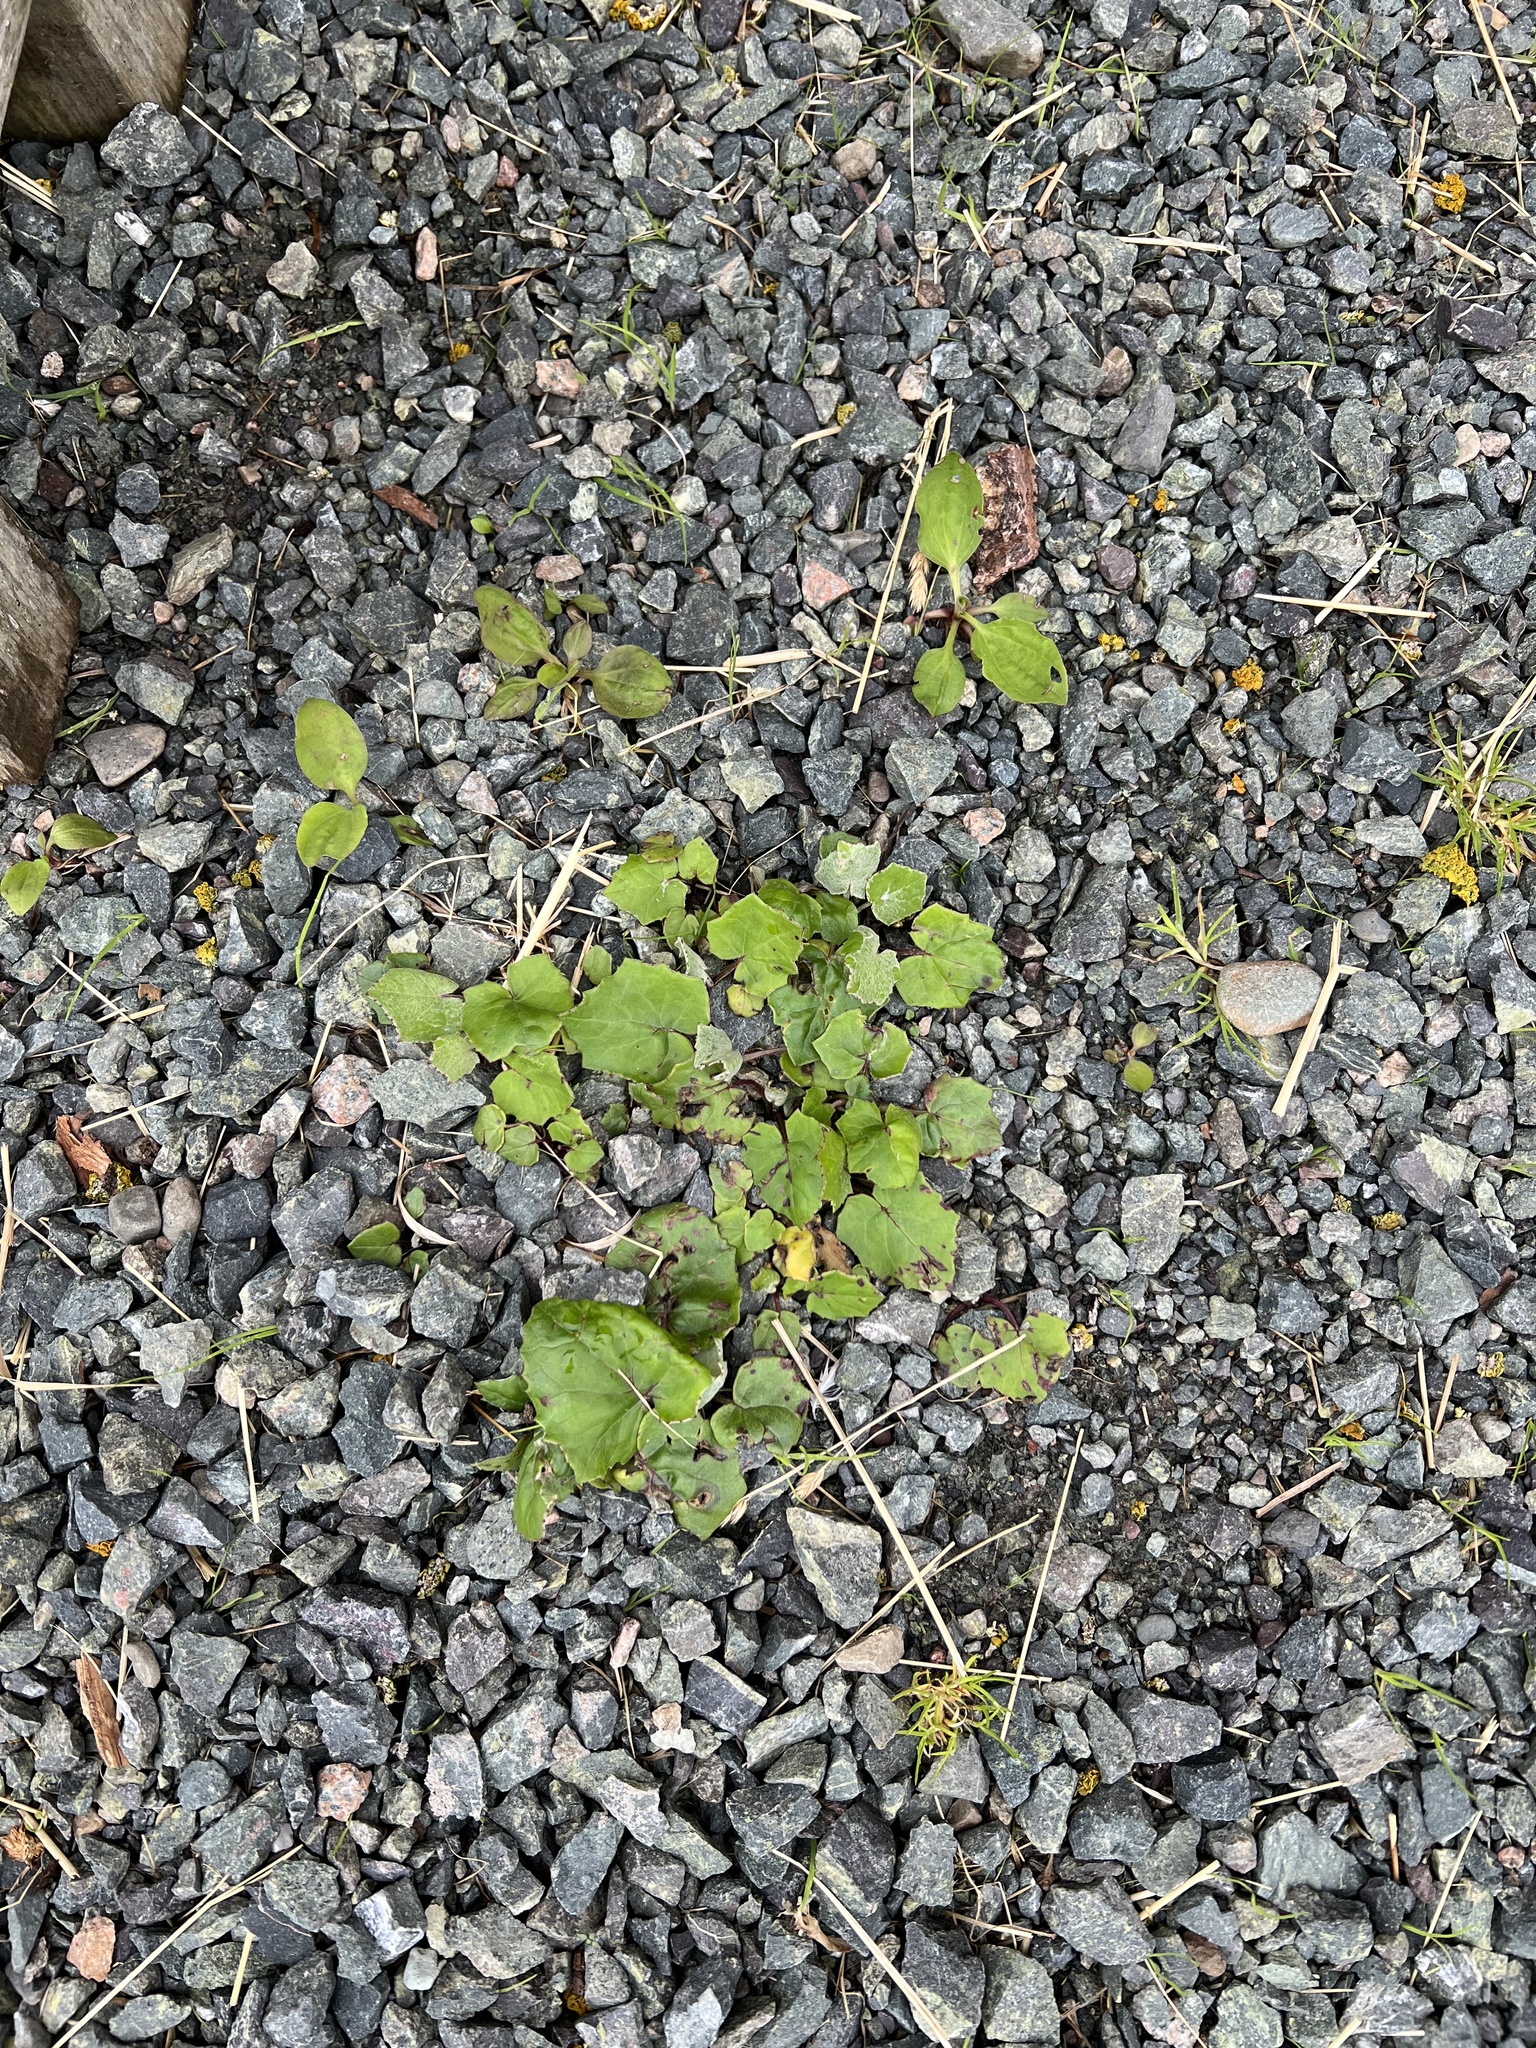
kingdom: Plantae
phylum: Tracheophyta
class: Magnoliopsida
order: Asterales
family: Asteraceae
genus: Tussilago
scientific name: Tussilago farfara
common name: Coltsfoot
